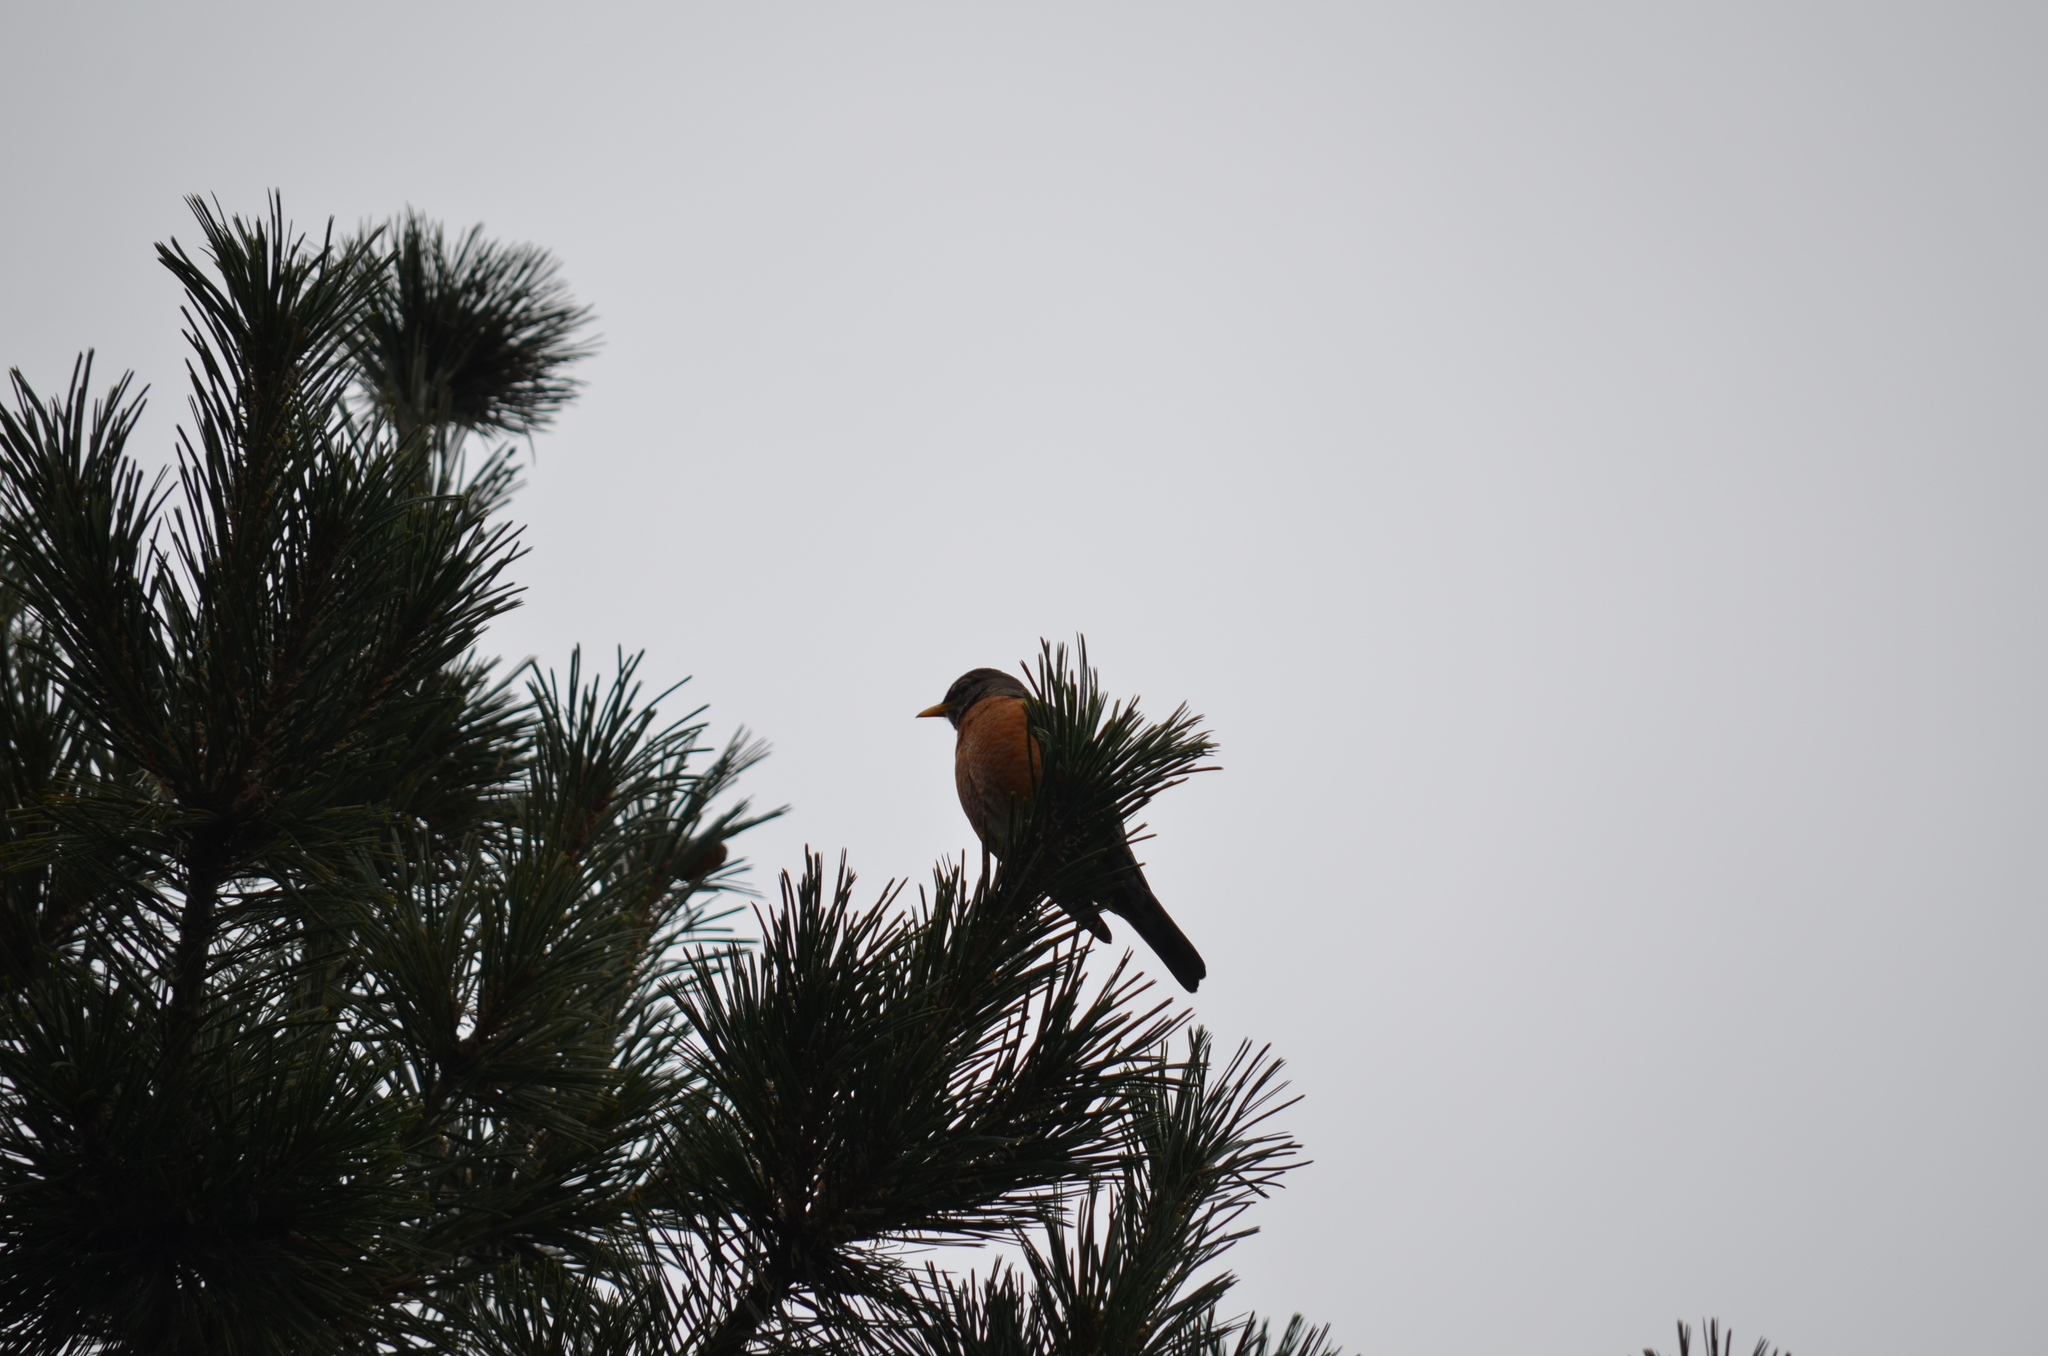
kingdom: Animalia
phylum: Chordata
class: Aves
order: Passeriformes
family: Turdidae
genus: Turdus
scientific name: Turdus migratorius
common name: American robin
